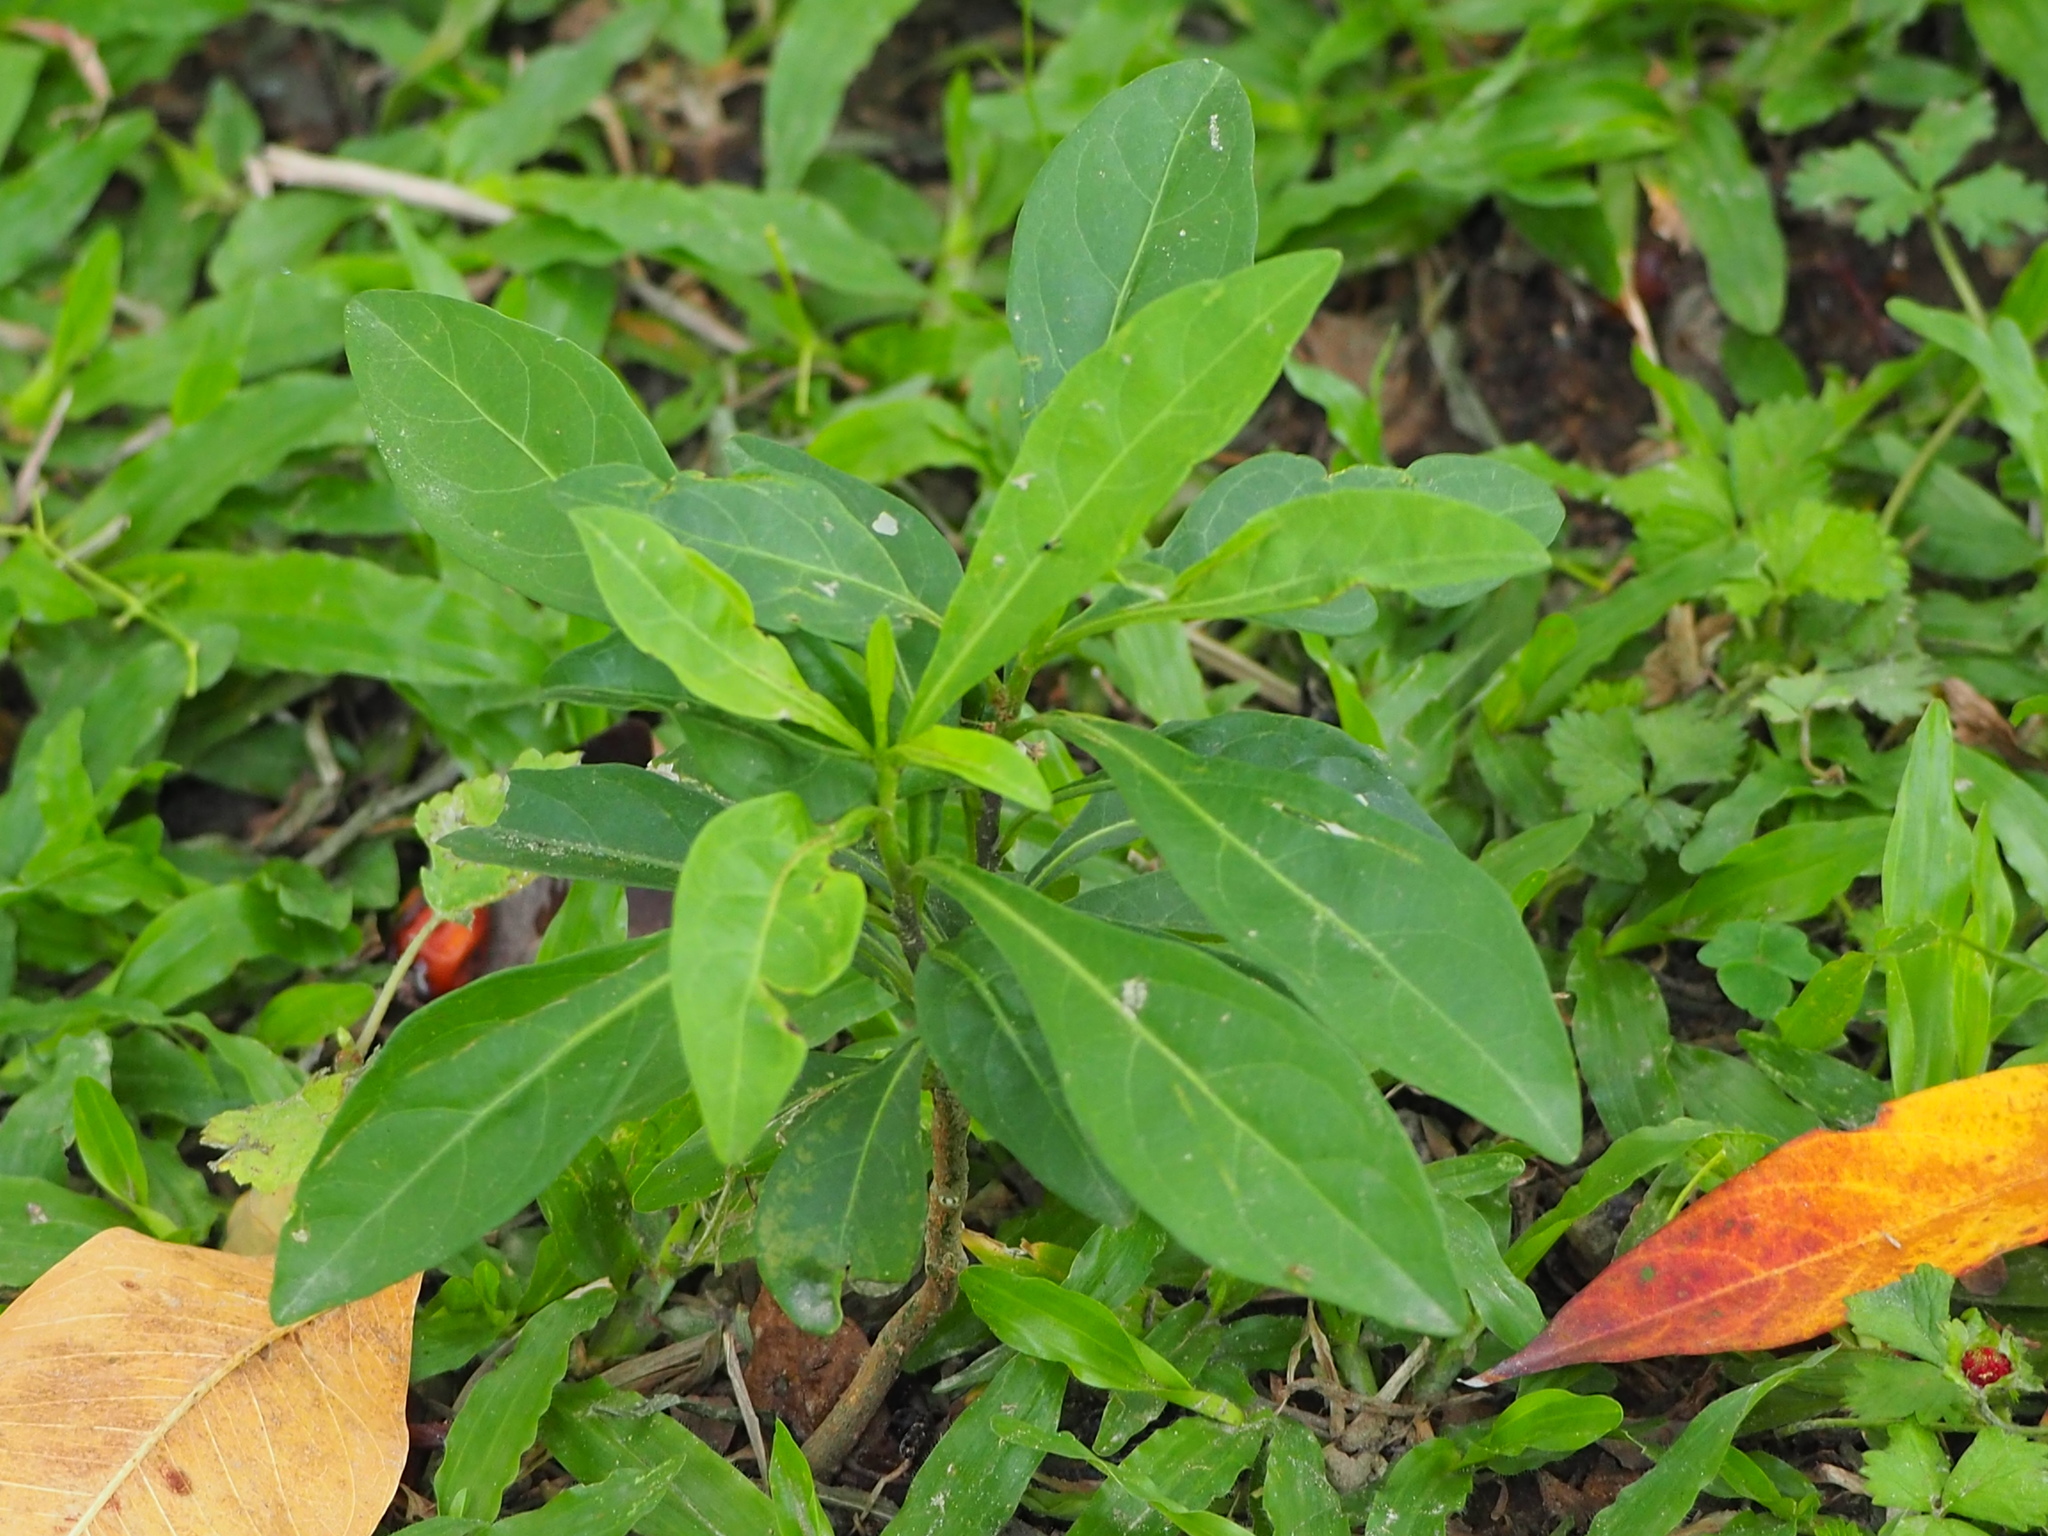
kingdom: Plantae
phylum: Tracheophyta
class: Magnoliopsida
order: Solanales
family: Solanaceae
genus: Solanum
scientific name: Solanum diphyllum
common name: Twoleaf nightshade
